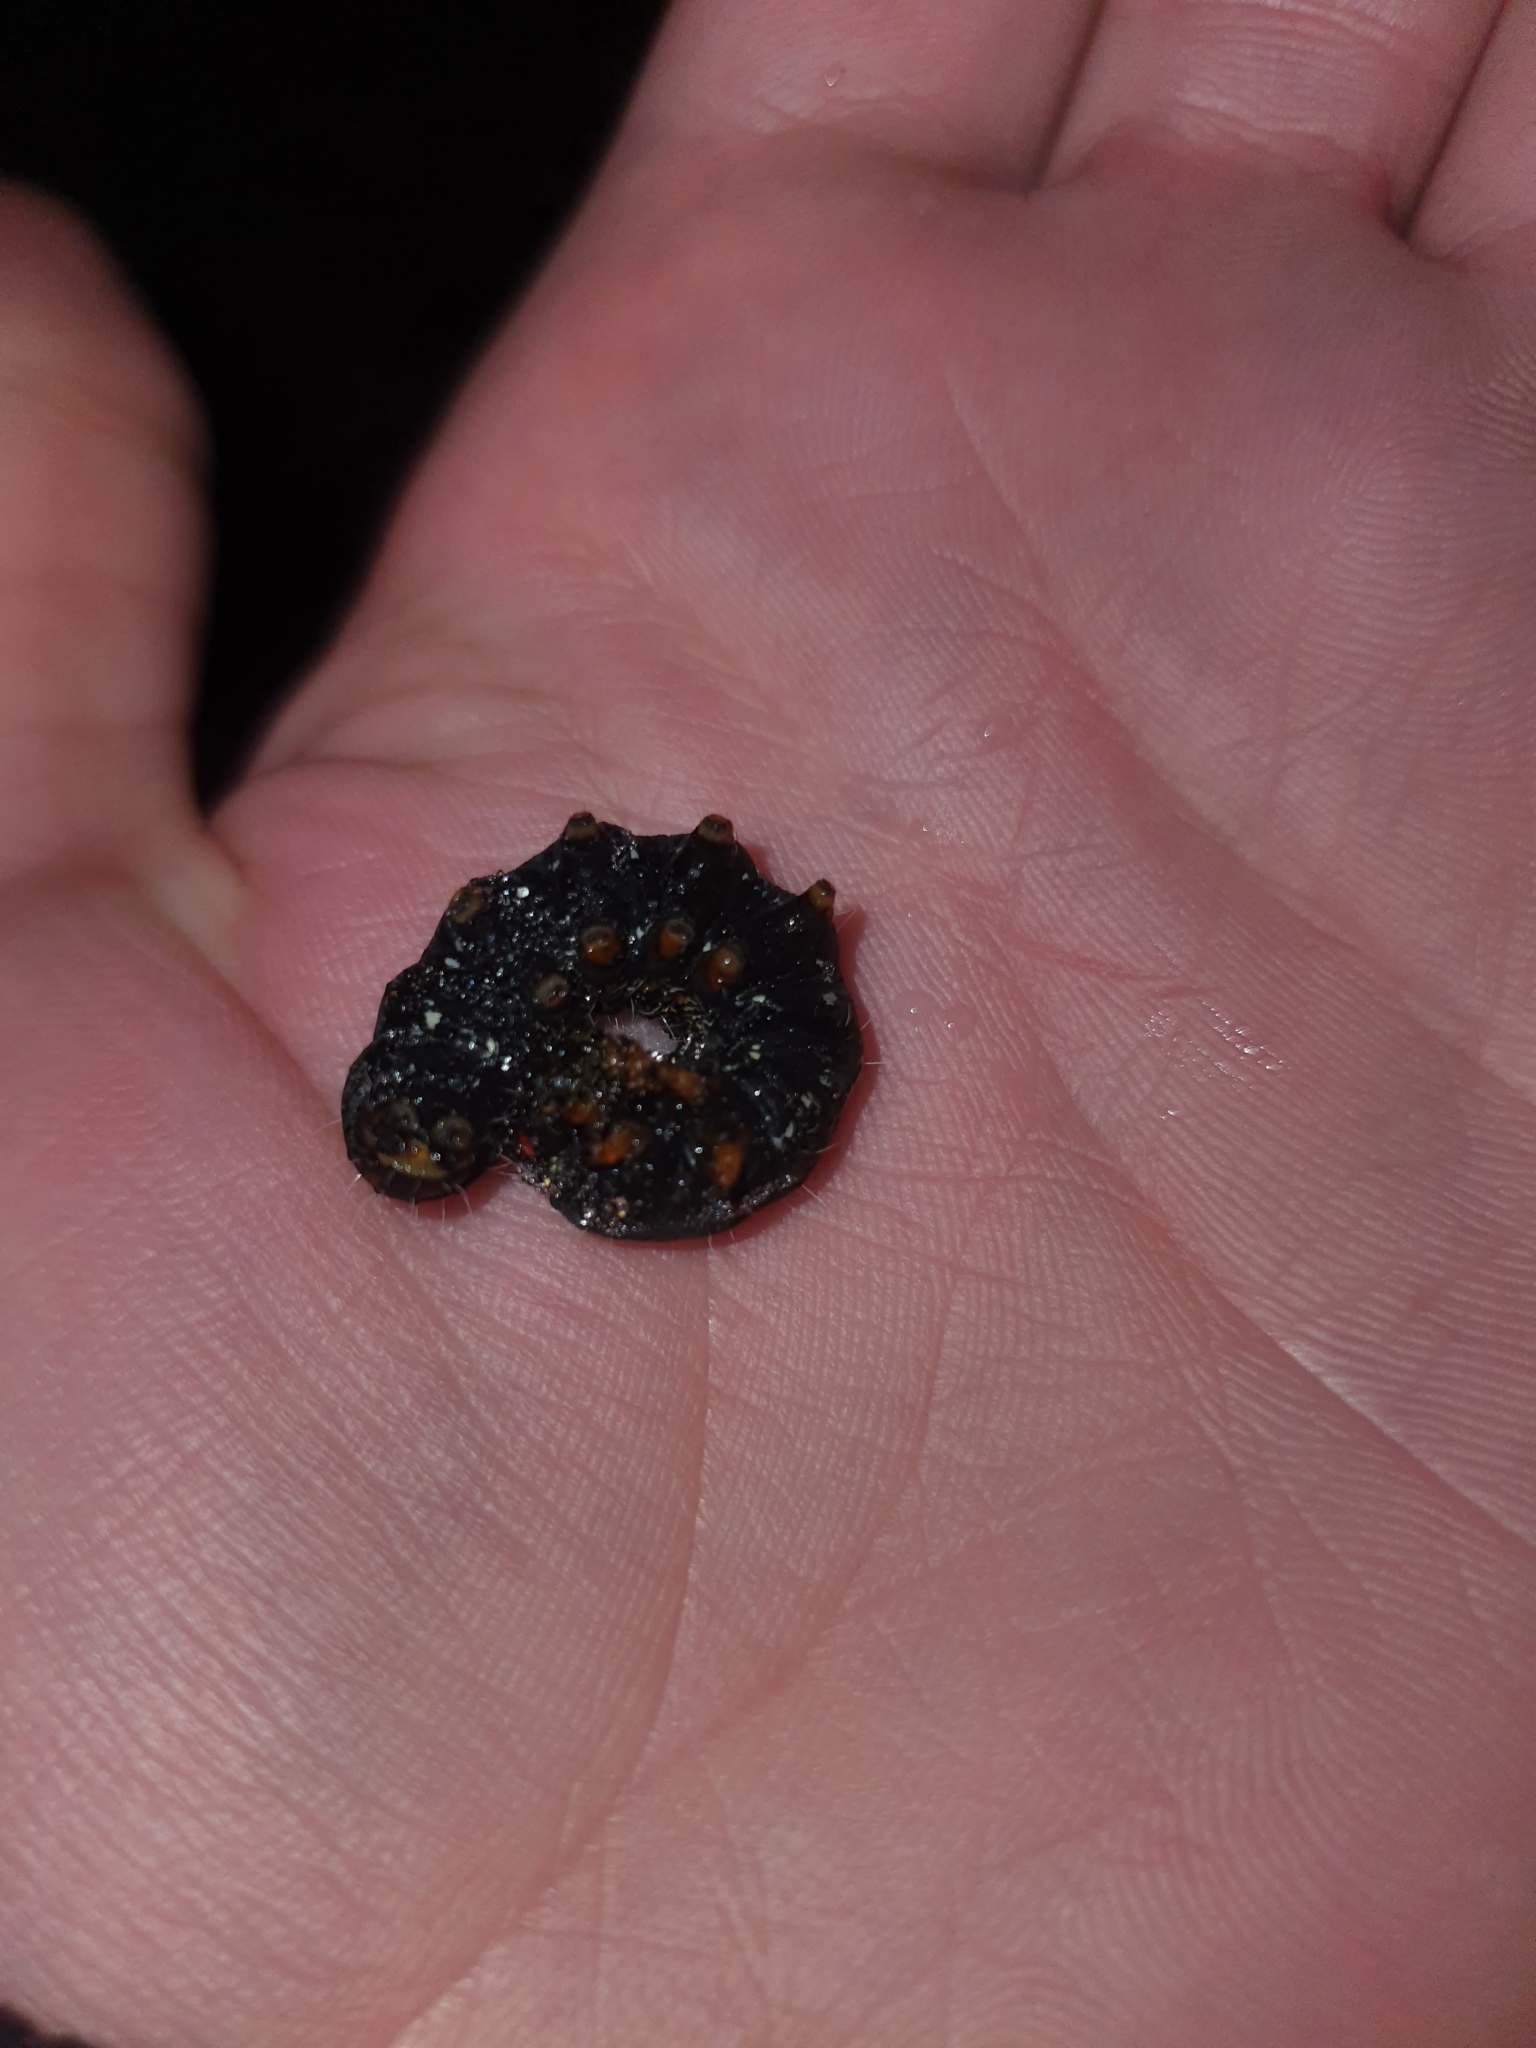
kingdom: Animalia
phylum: Arthropoda
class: Insecta
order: Lepidoptera
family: Noctuidae
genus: Apina
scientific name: Apina callisto
